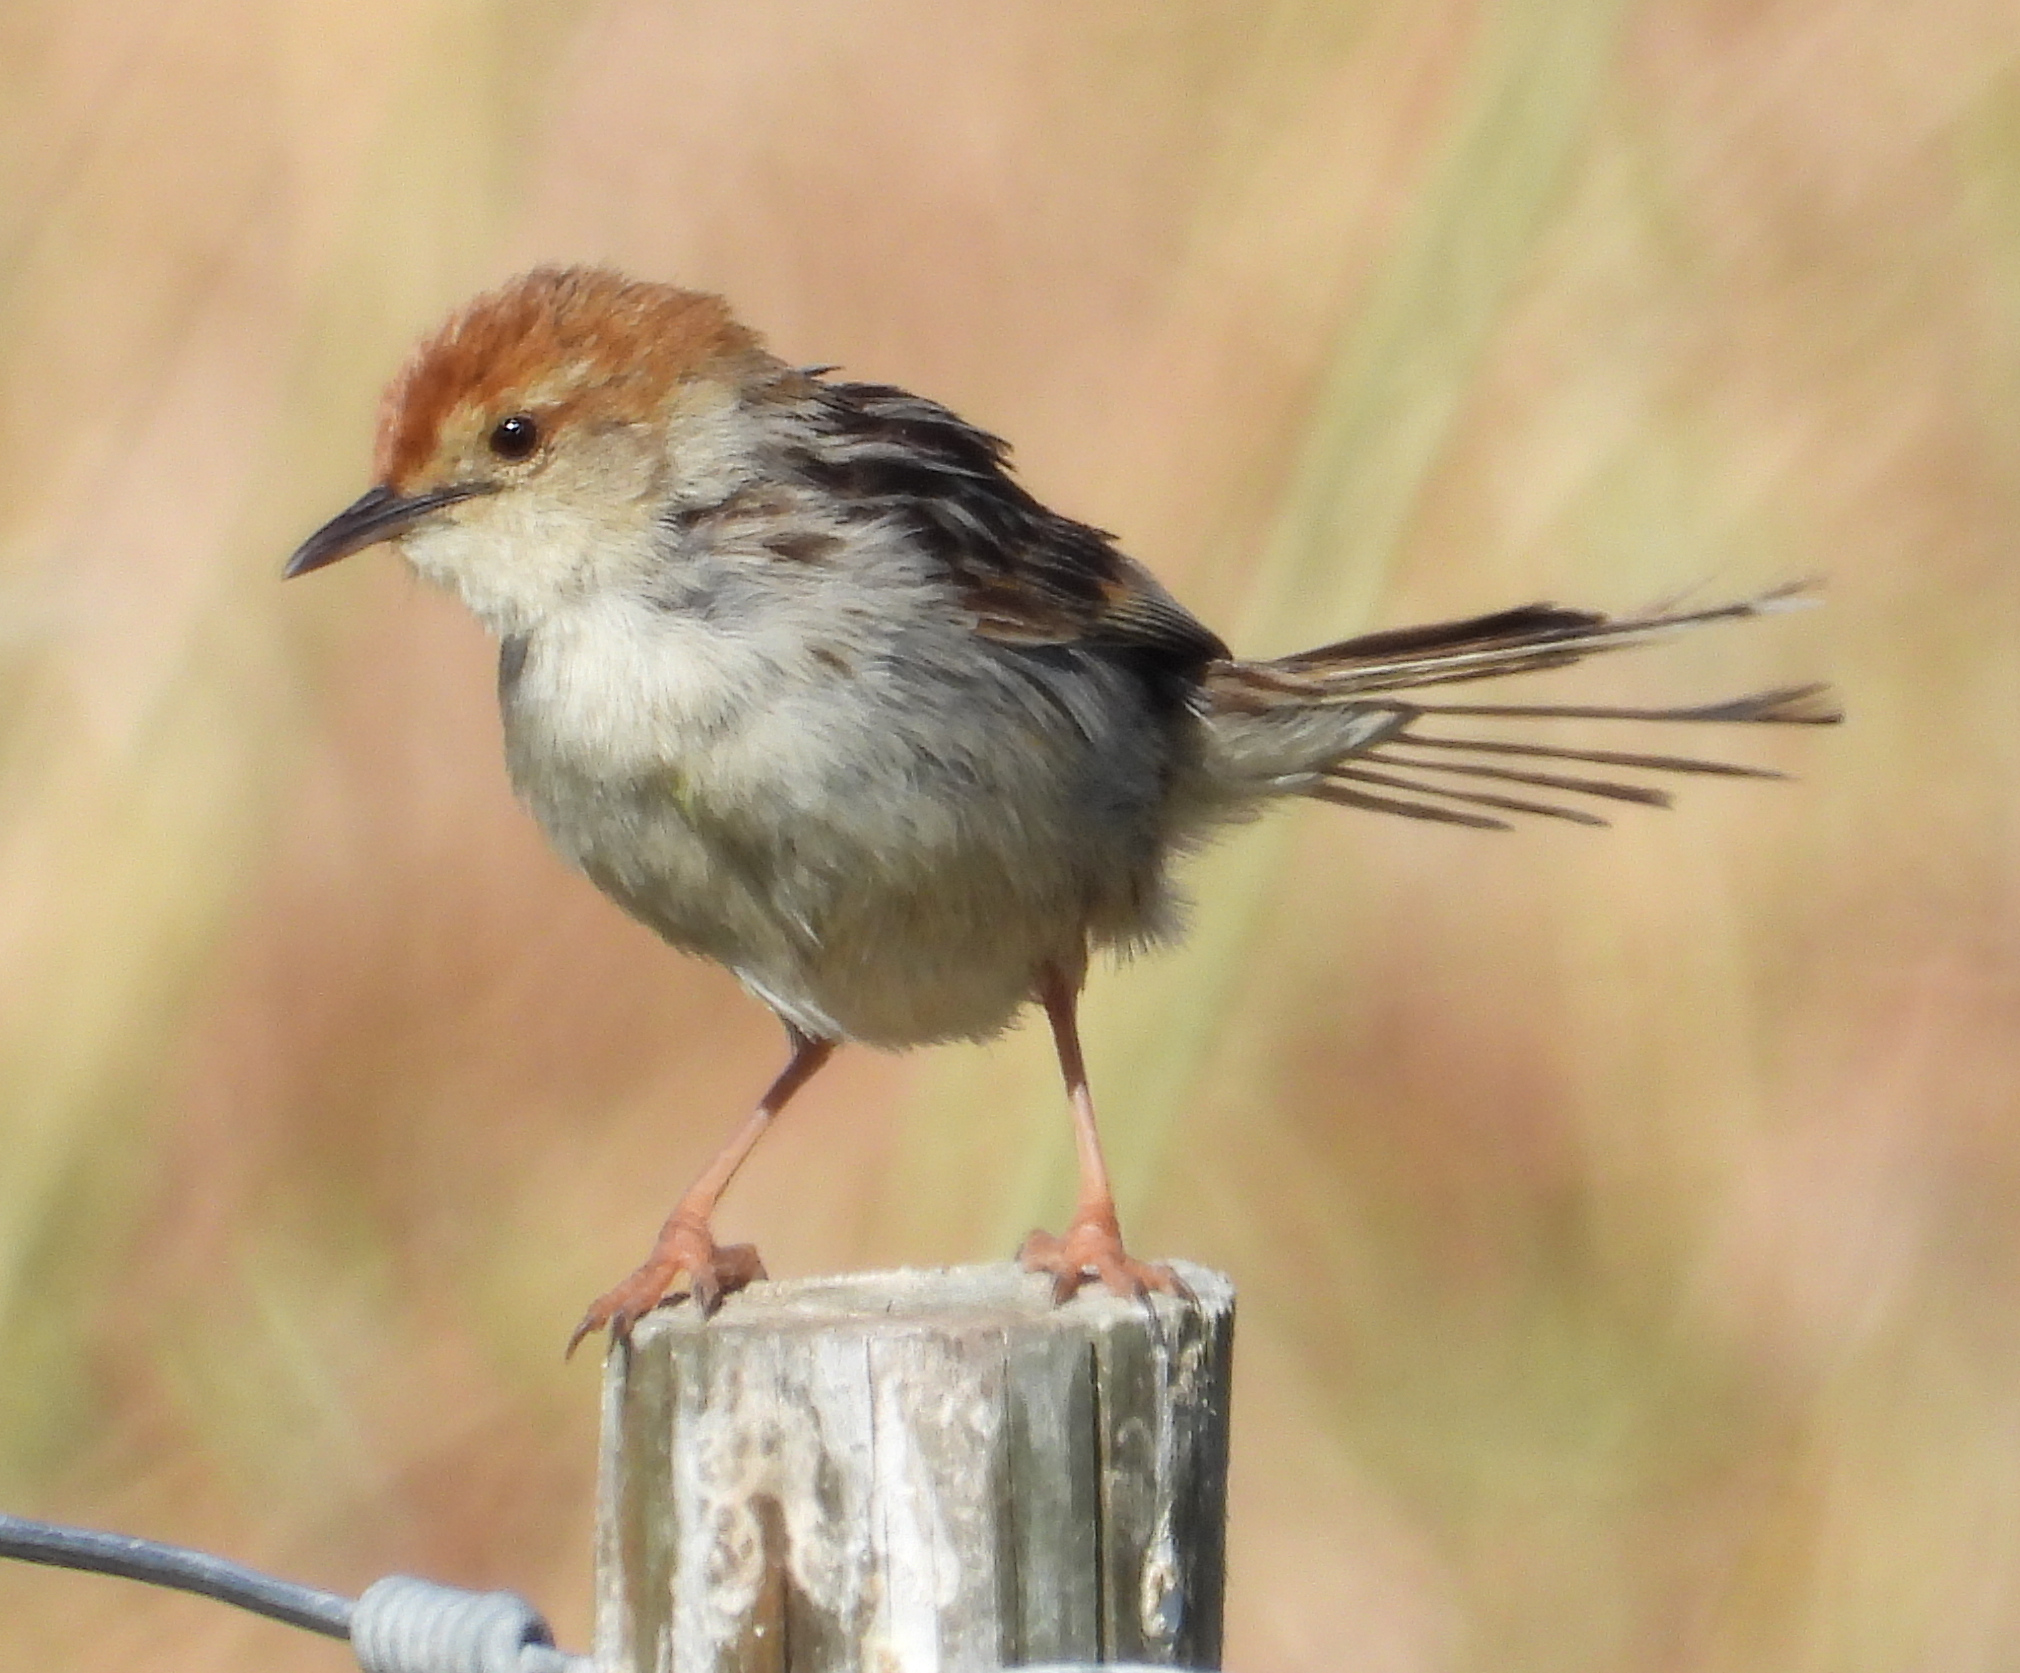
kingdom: Animalia
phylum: Chordata
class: Aves
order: Passeriformes
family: Cisticolidae
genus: Cisticola
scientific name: Cisticola tinniens
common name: Levaillant's cisticola
